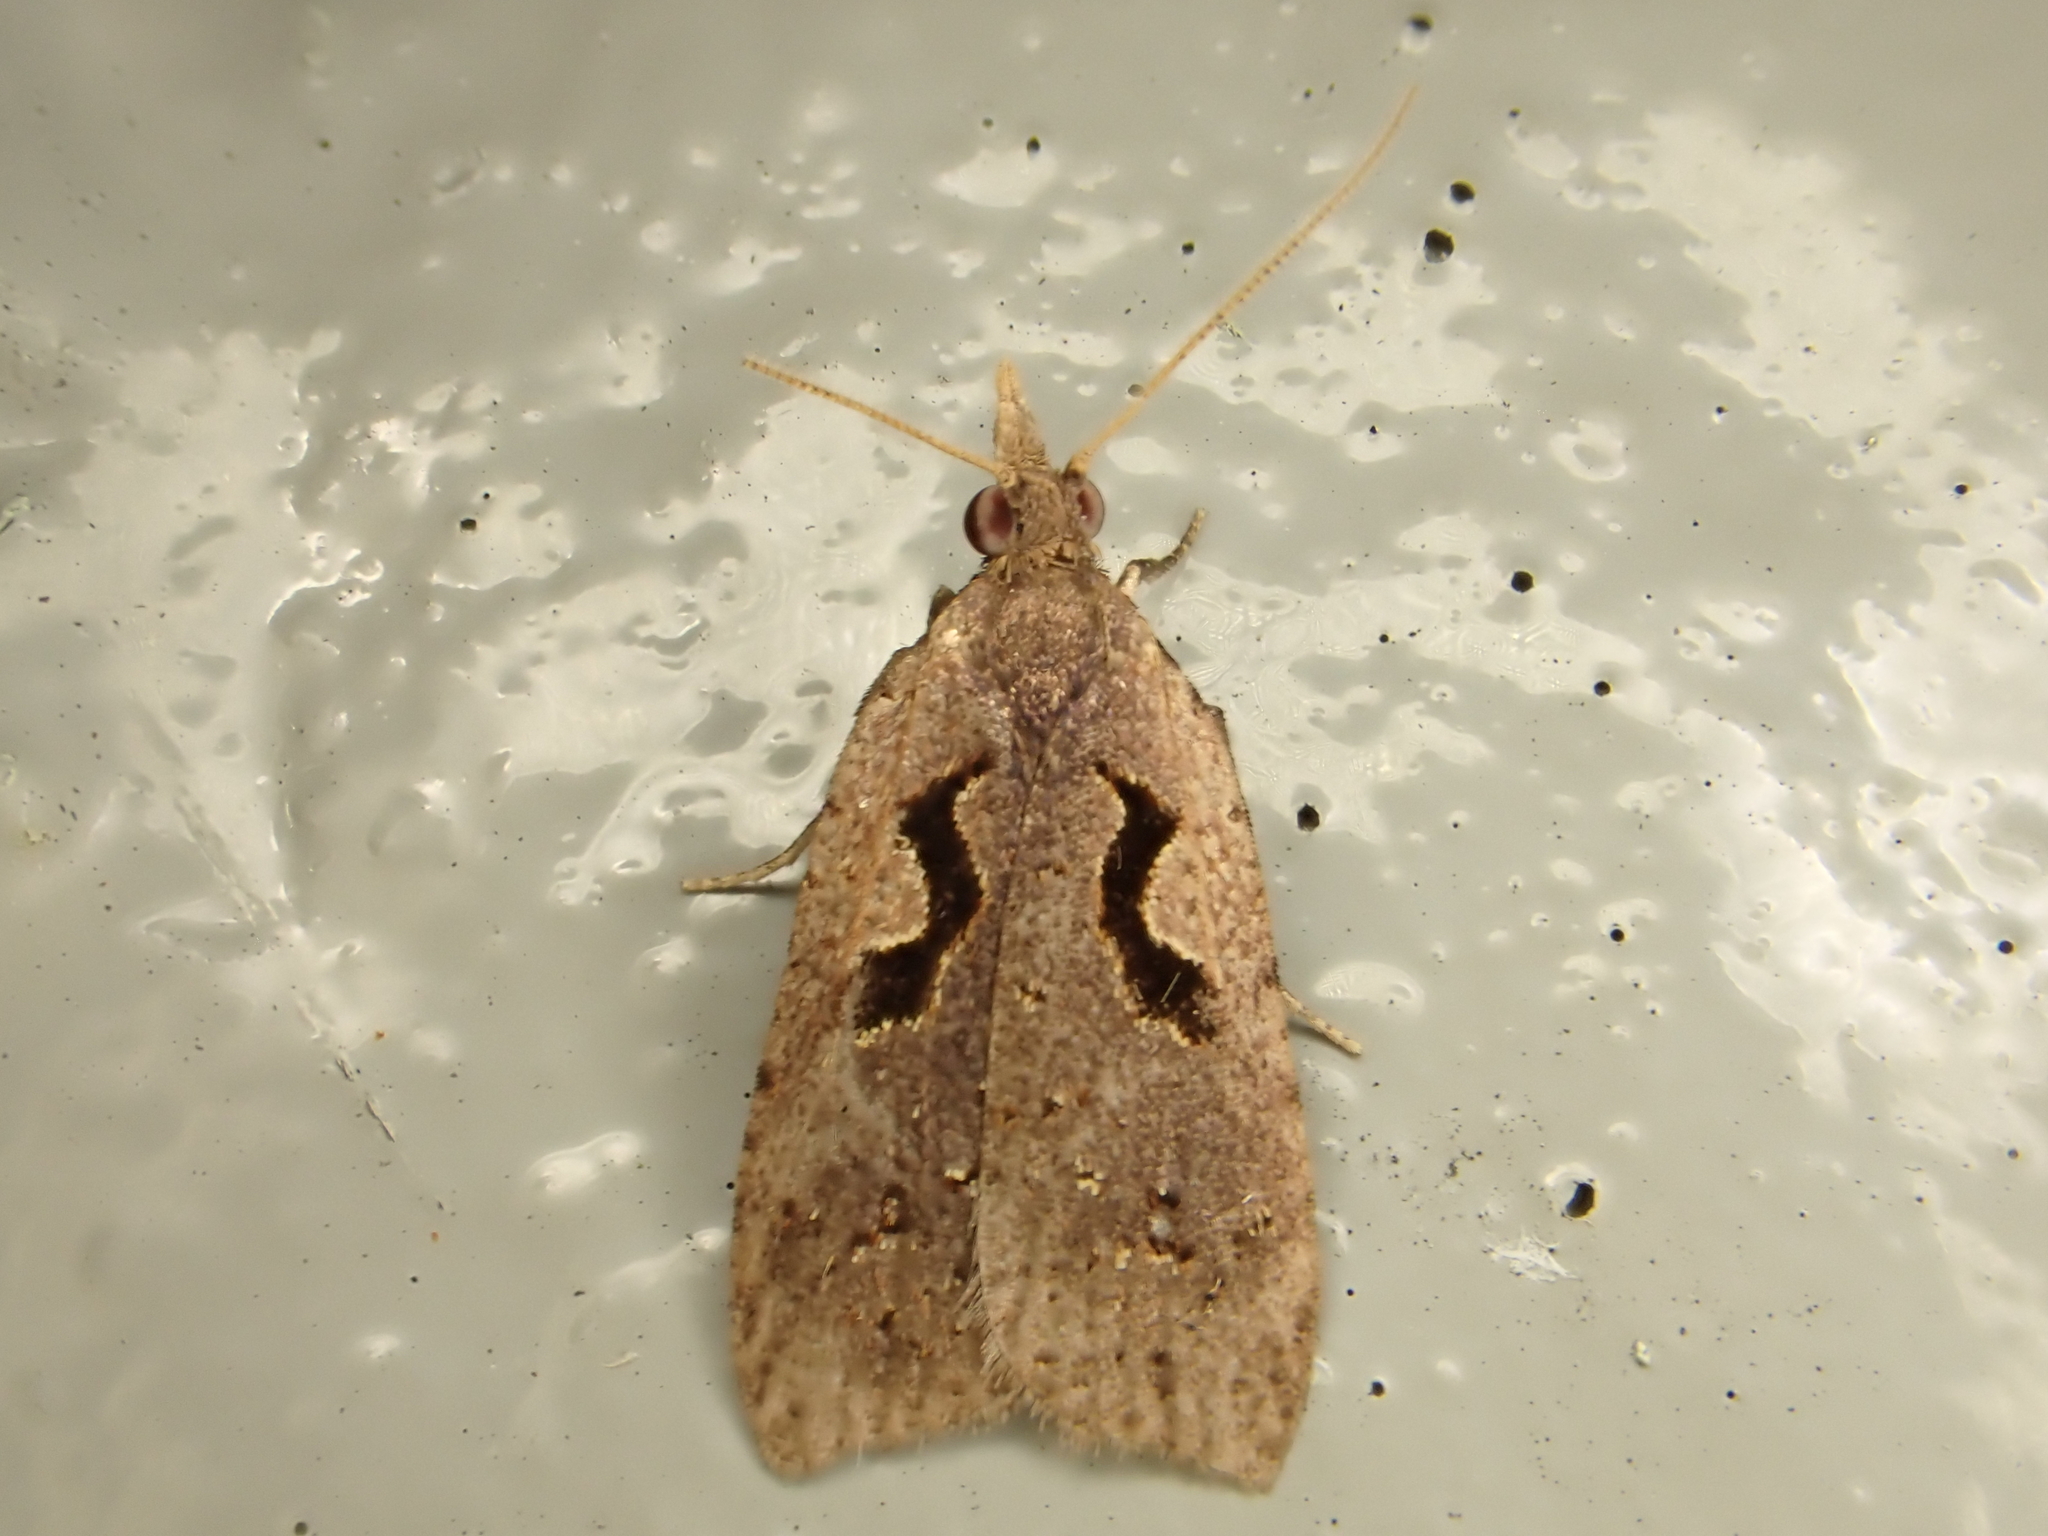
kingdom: Animalia
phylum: Arthropoda
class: Insecta
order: Lepidoptera
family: Tortricidae
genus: Cnephasia
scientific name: Cnephasia jactatana
